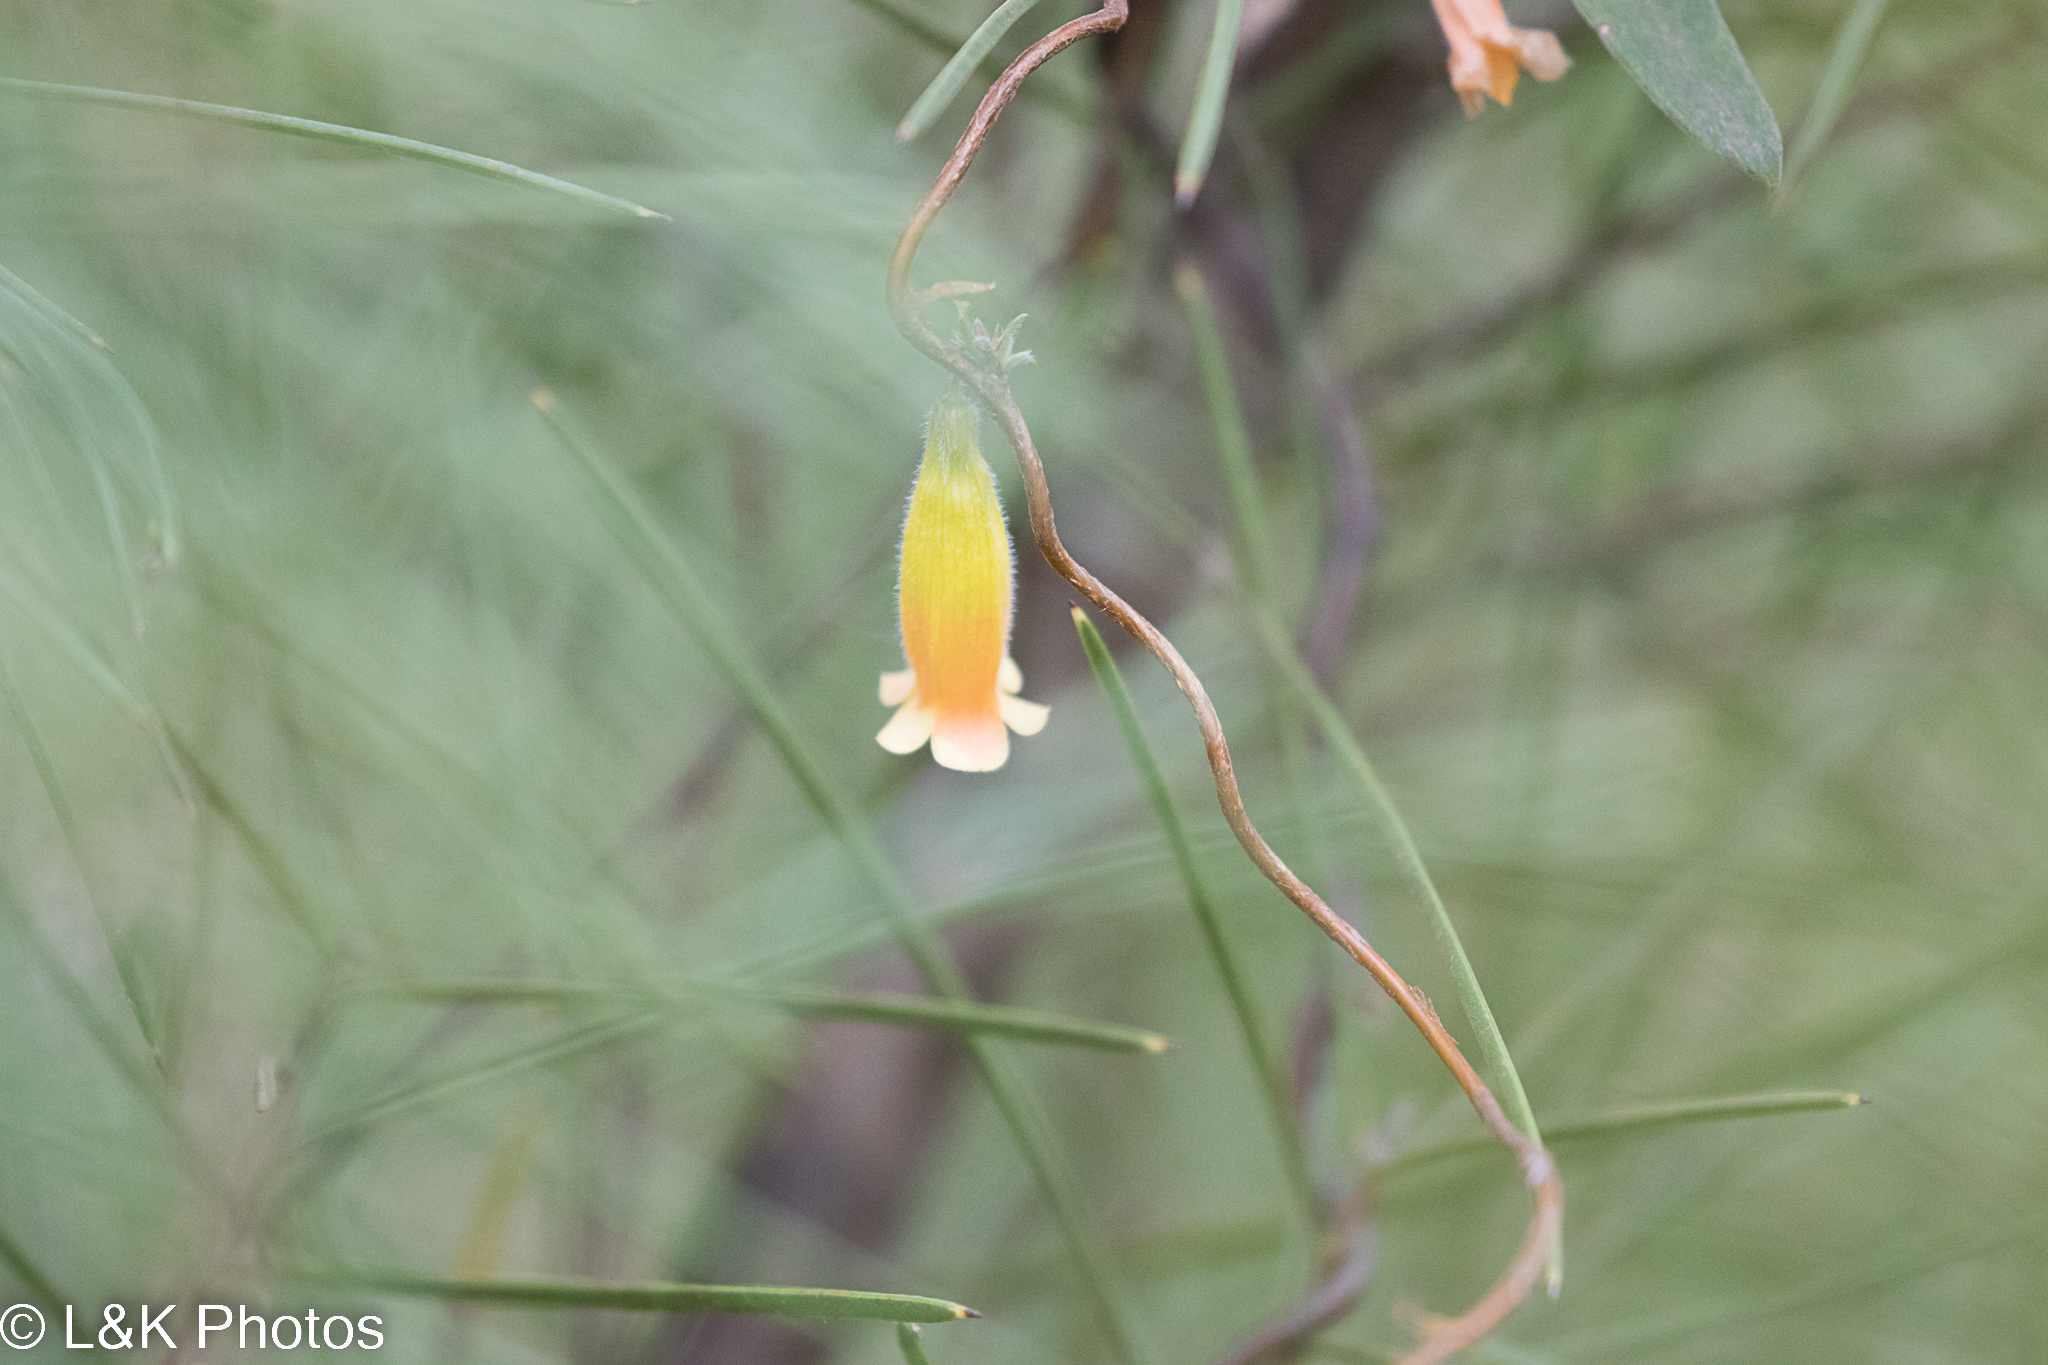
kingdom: Plantae
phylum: Tracheophyta
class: Magnoliopsida
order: Apiales
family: Pittosporaceae
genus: Marianthus
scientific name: Marianthus bignoniaceus
